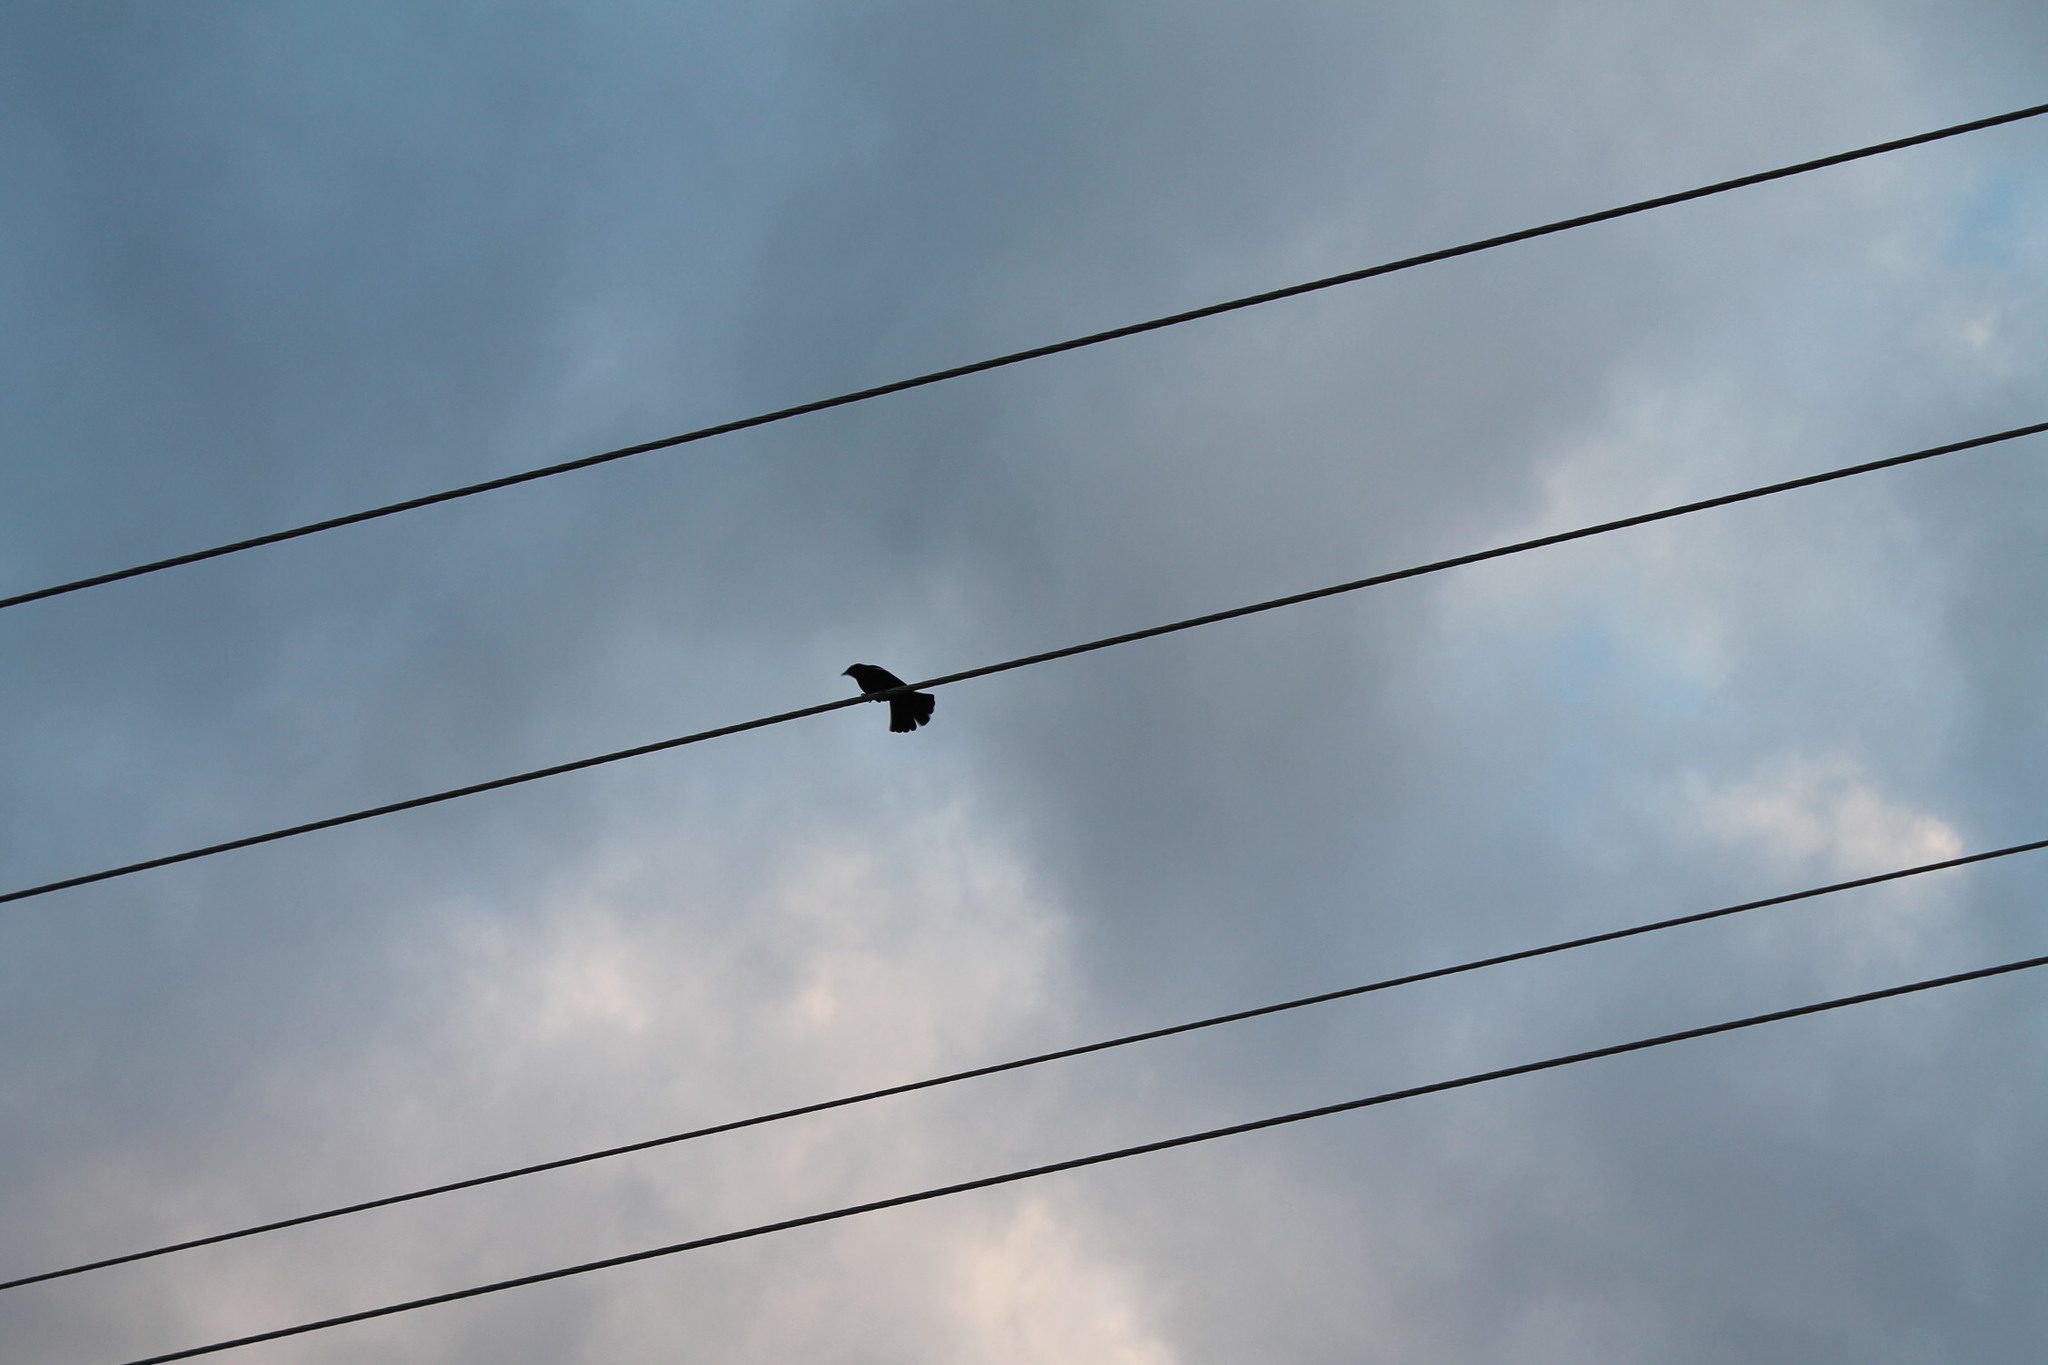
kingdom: Animalia
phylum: Chordata
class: Aves
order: Passeriformes
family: Icteridae
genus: Agelaius
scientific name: Agelaius phoeniceus
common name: Red-winged blackbird
